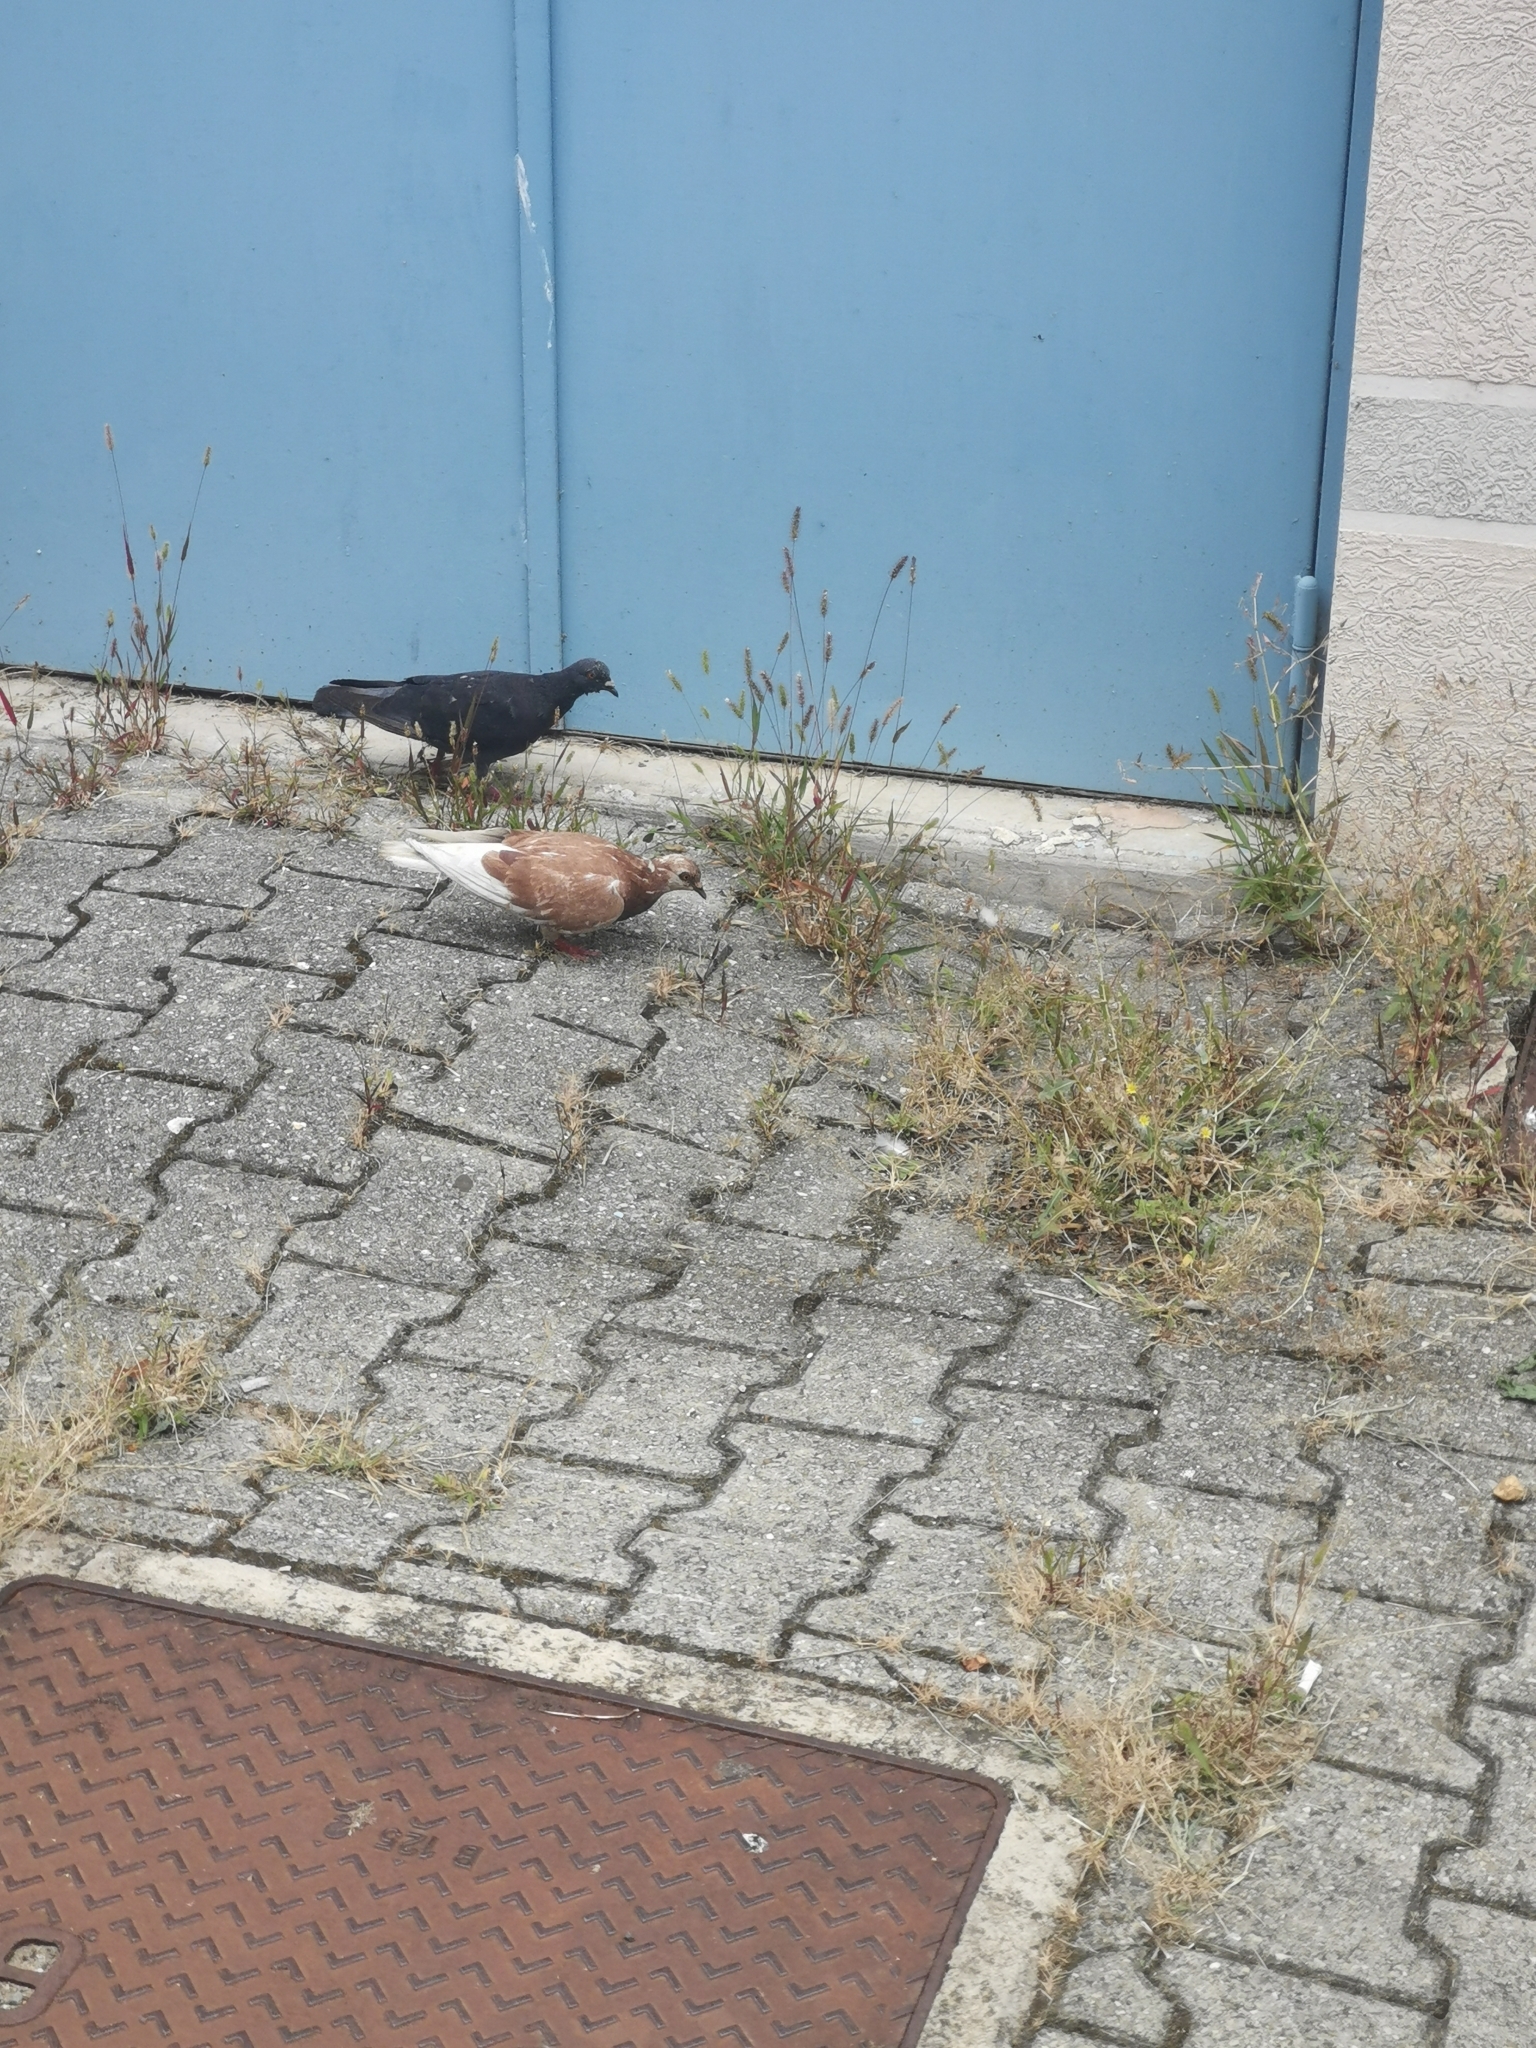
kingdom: Animalia
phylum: Chordata
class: Aves
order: Columbiformes
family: Columbidae
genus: Columba
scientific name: Columba livia
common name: Rock pigeon
